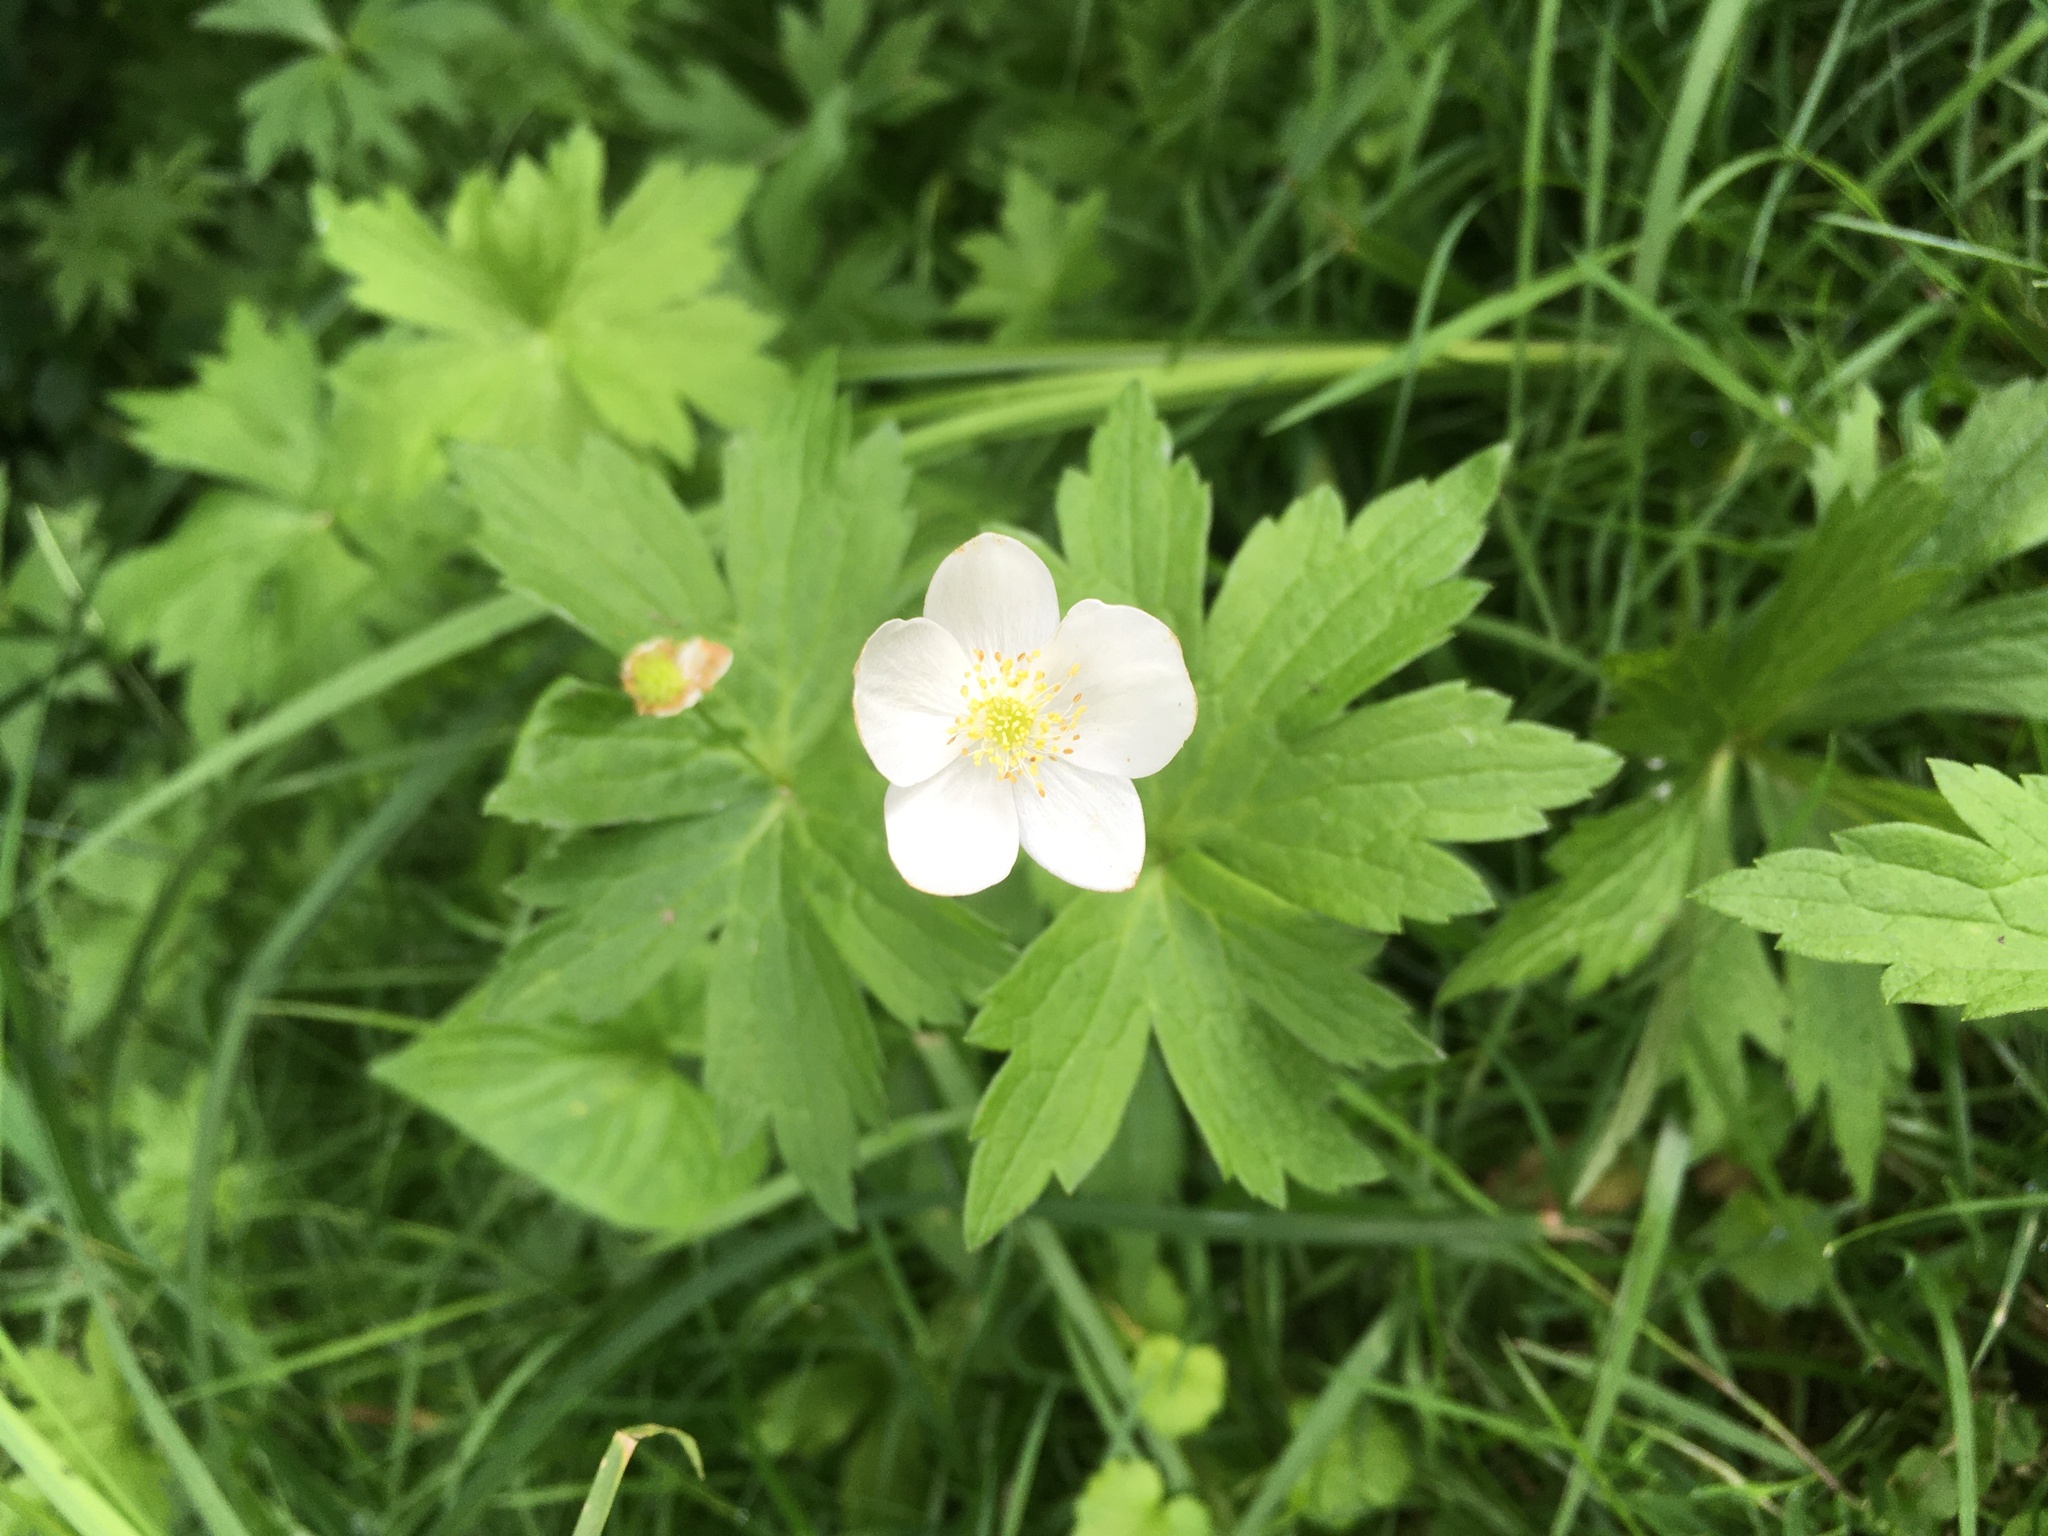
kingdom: Plantae
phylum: Tracheophyta
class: Magnoliopsida
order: Ranunculales
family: Ranunculaceae
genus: Anemonastrum
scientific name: Anemonastrum canadense
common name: Canada anemone
